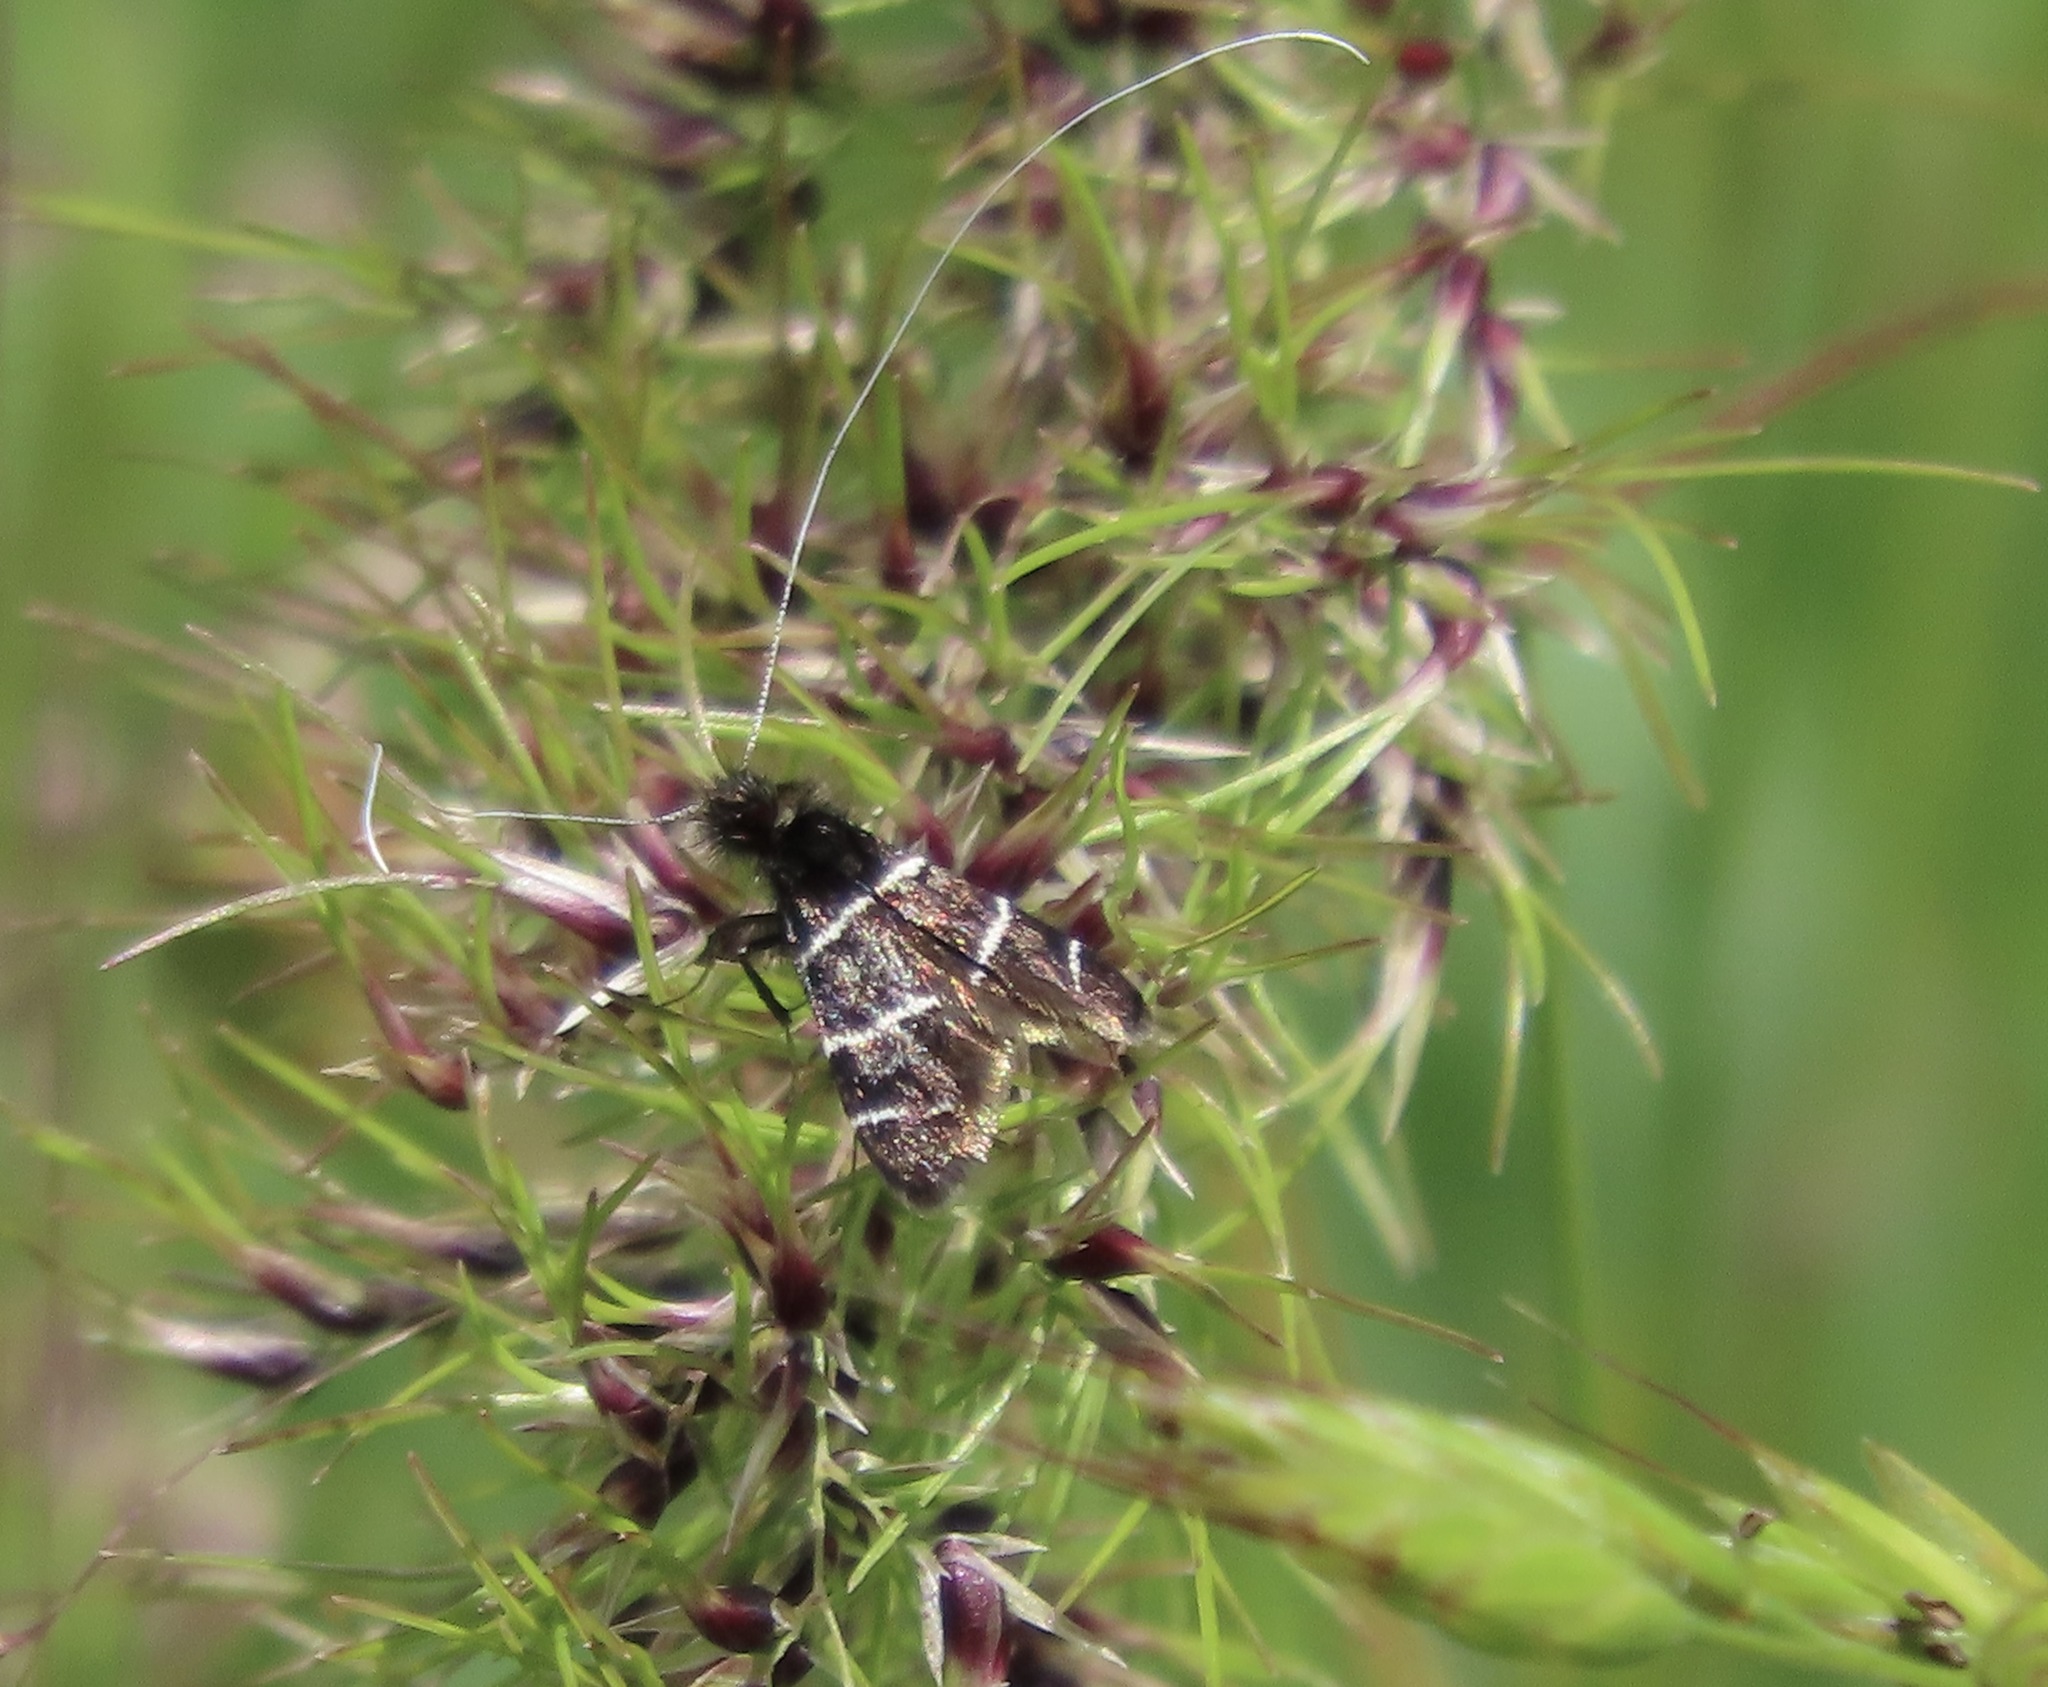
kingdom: Animalia
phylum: Arthropoda
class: Insecta
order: Lepidoptera
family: Adelidae
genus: Adela
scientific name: Adela trigrapha
